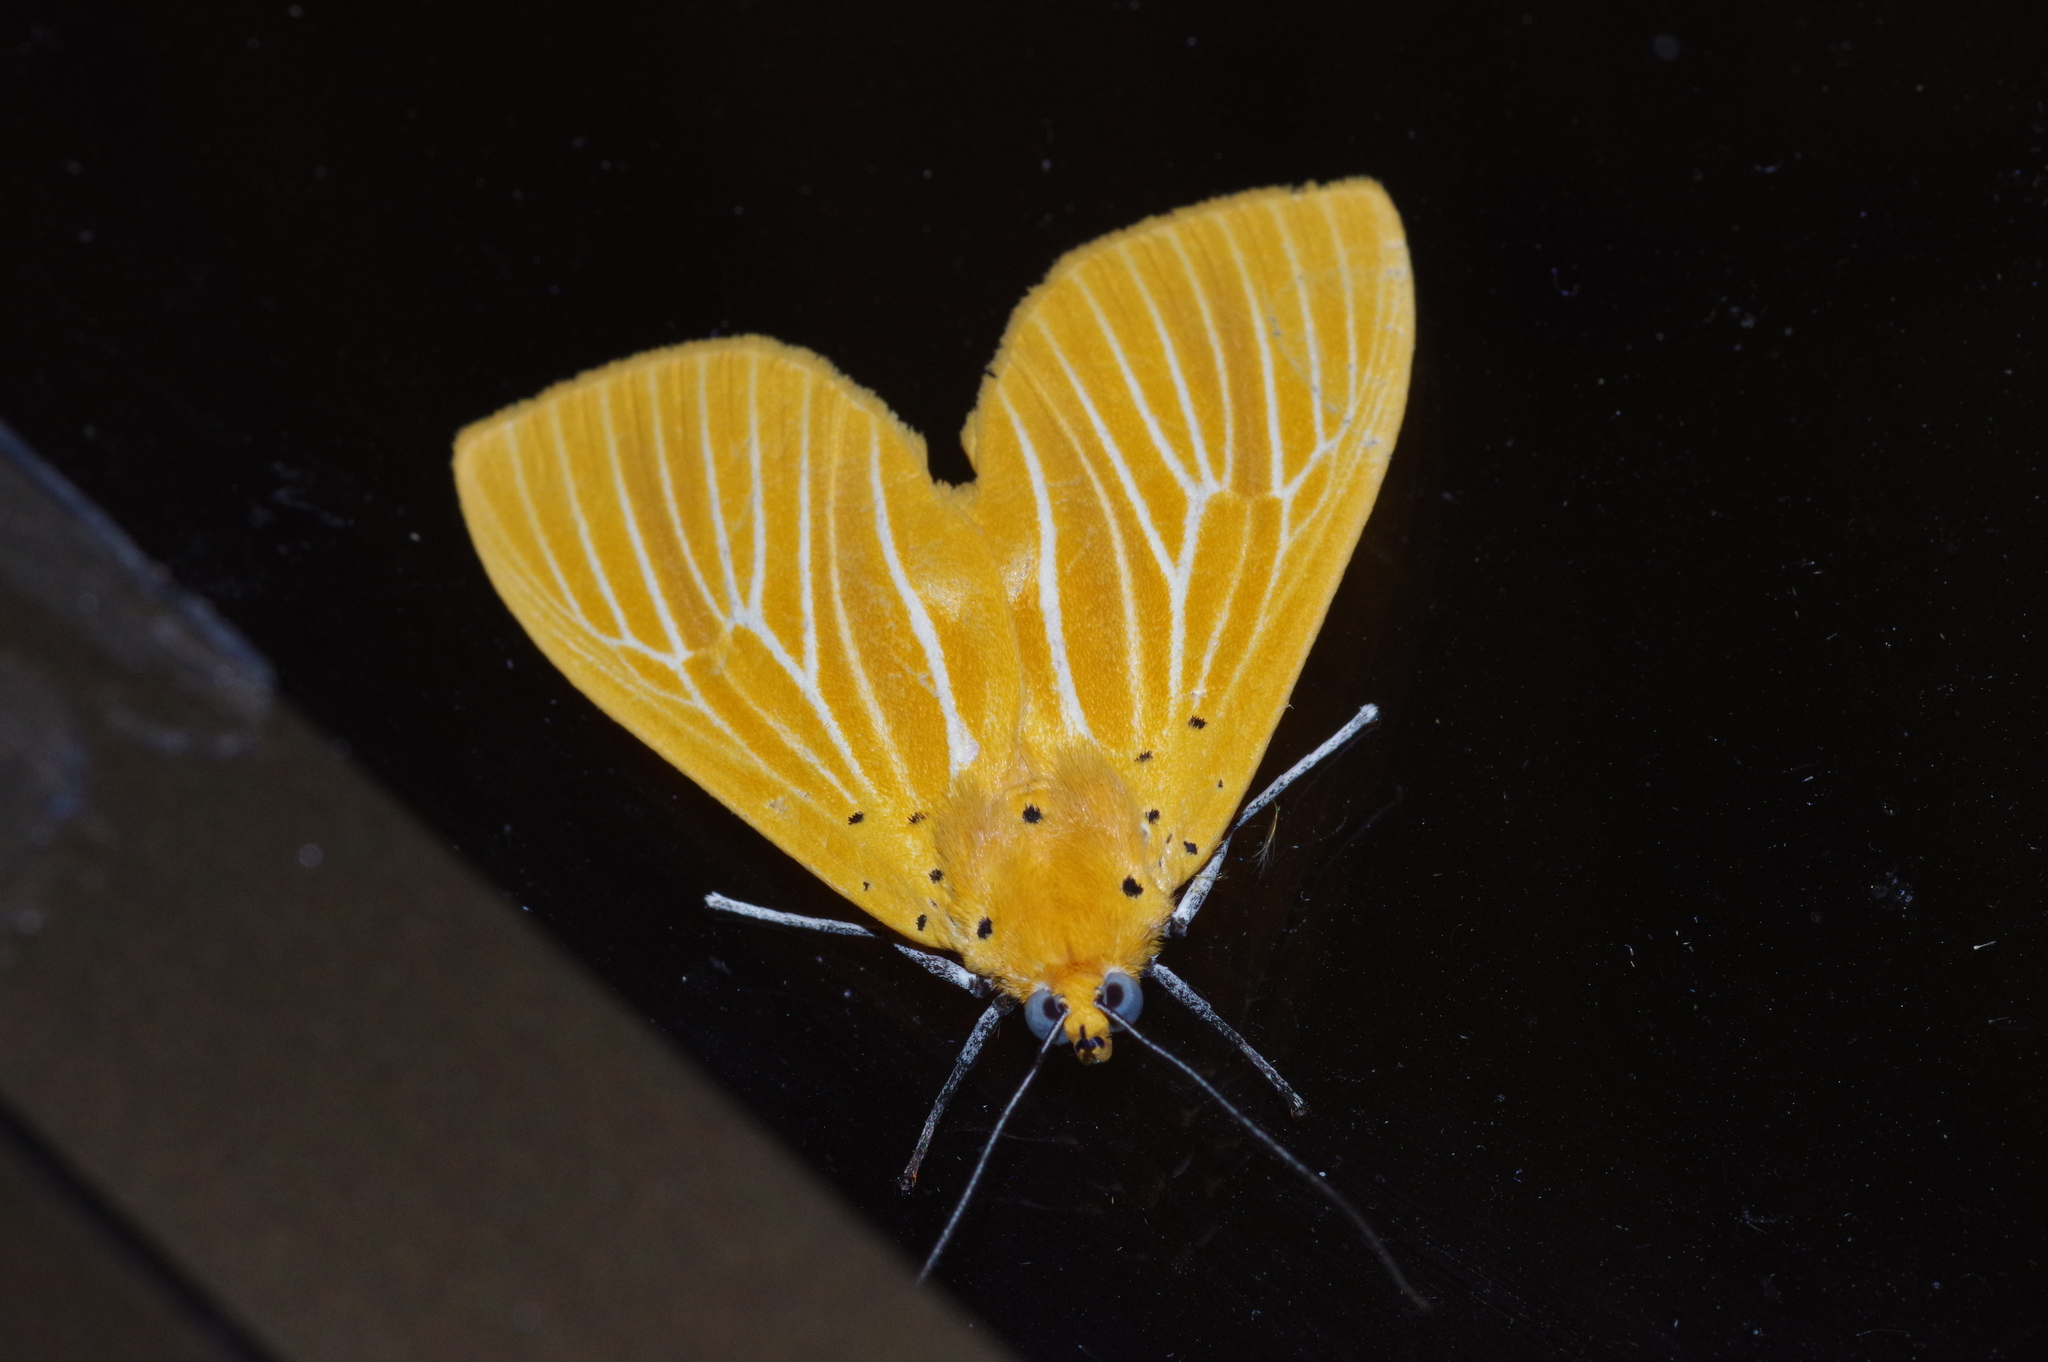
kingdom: Animalia
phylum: Arthropoda
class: Insecta
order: Lepidoptera
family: Erebidae
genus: Asota
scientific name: Asota egens
